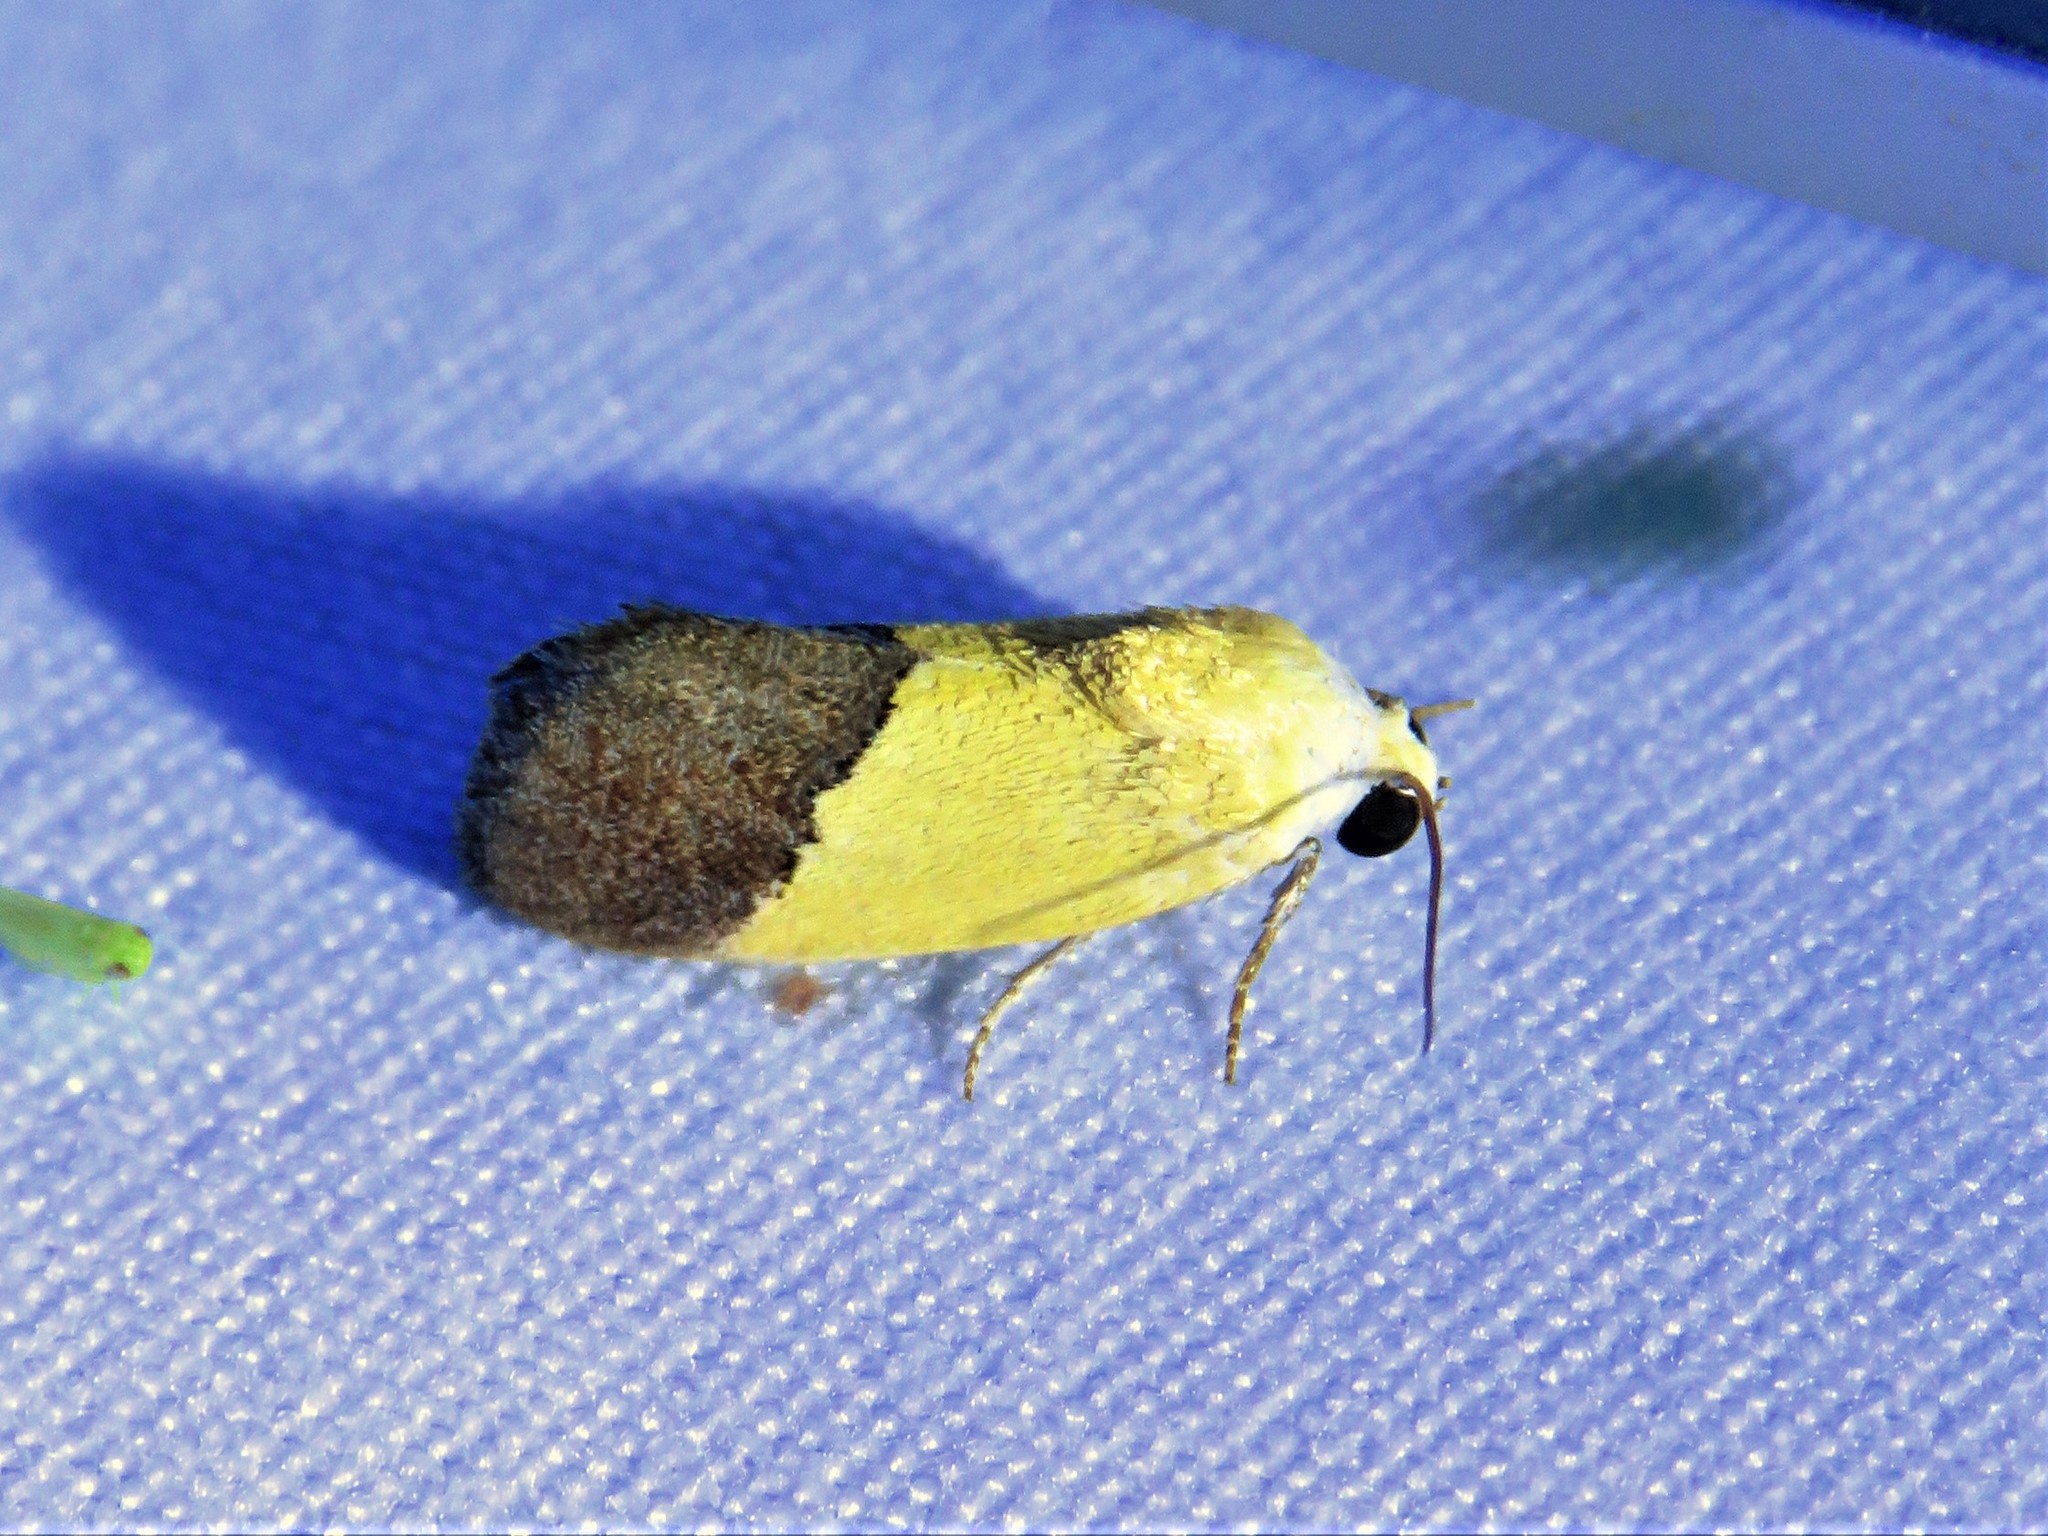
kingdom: Animalia
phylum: Arthropoda
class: Insecta
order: Lepidoptera
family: Noctuidae
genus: Acontia
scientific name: Acontia semiflava
